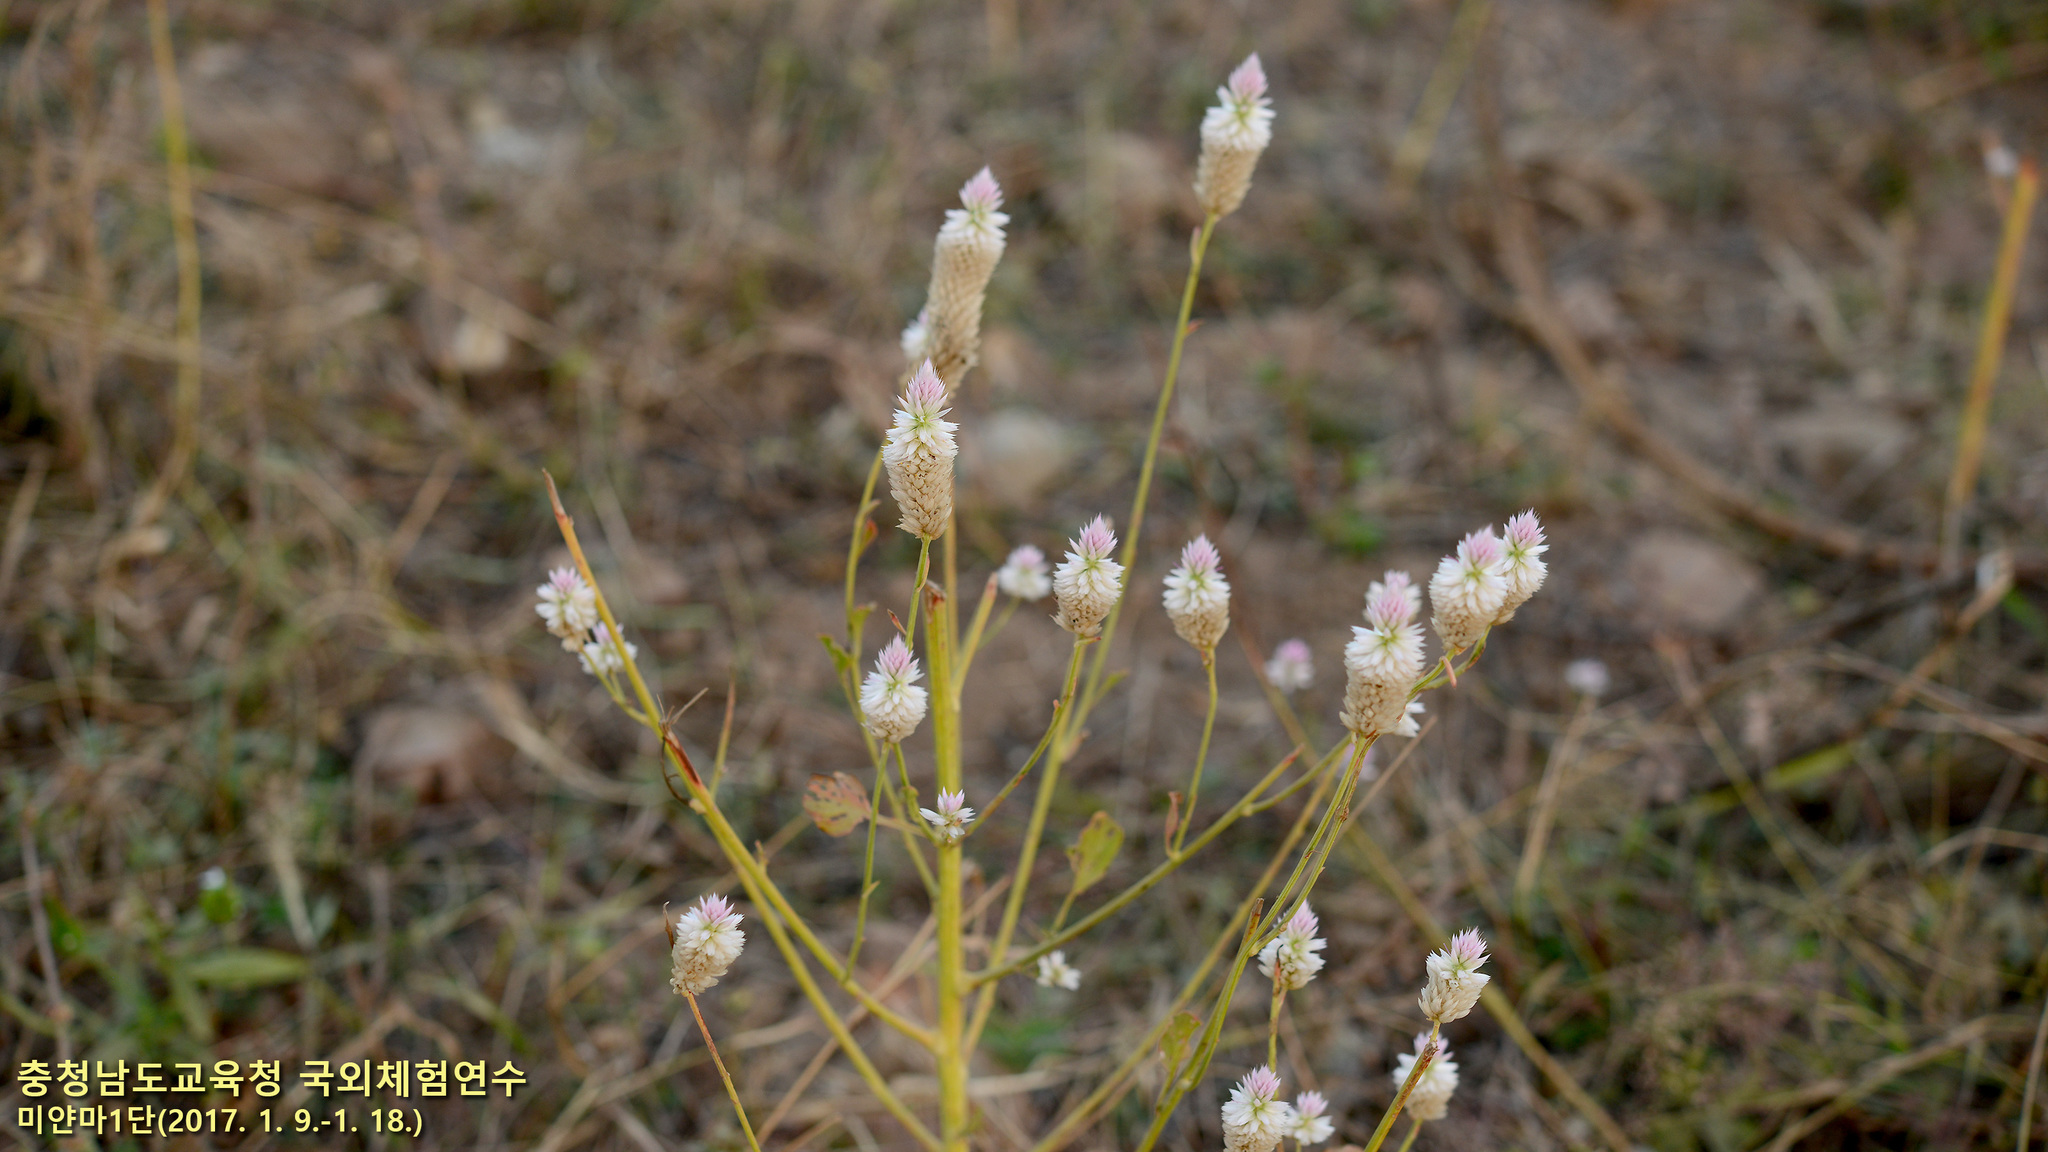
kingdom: Plantae
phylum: Tracheophyta
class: Magnoliopsida
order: Caryophyllales
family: Amaranthaceae
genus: Celosia
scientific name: Celosia argentea
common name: Feather cockscomb
